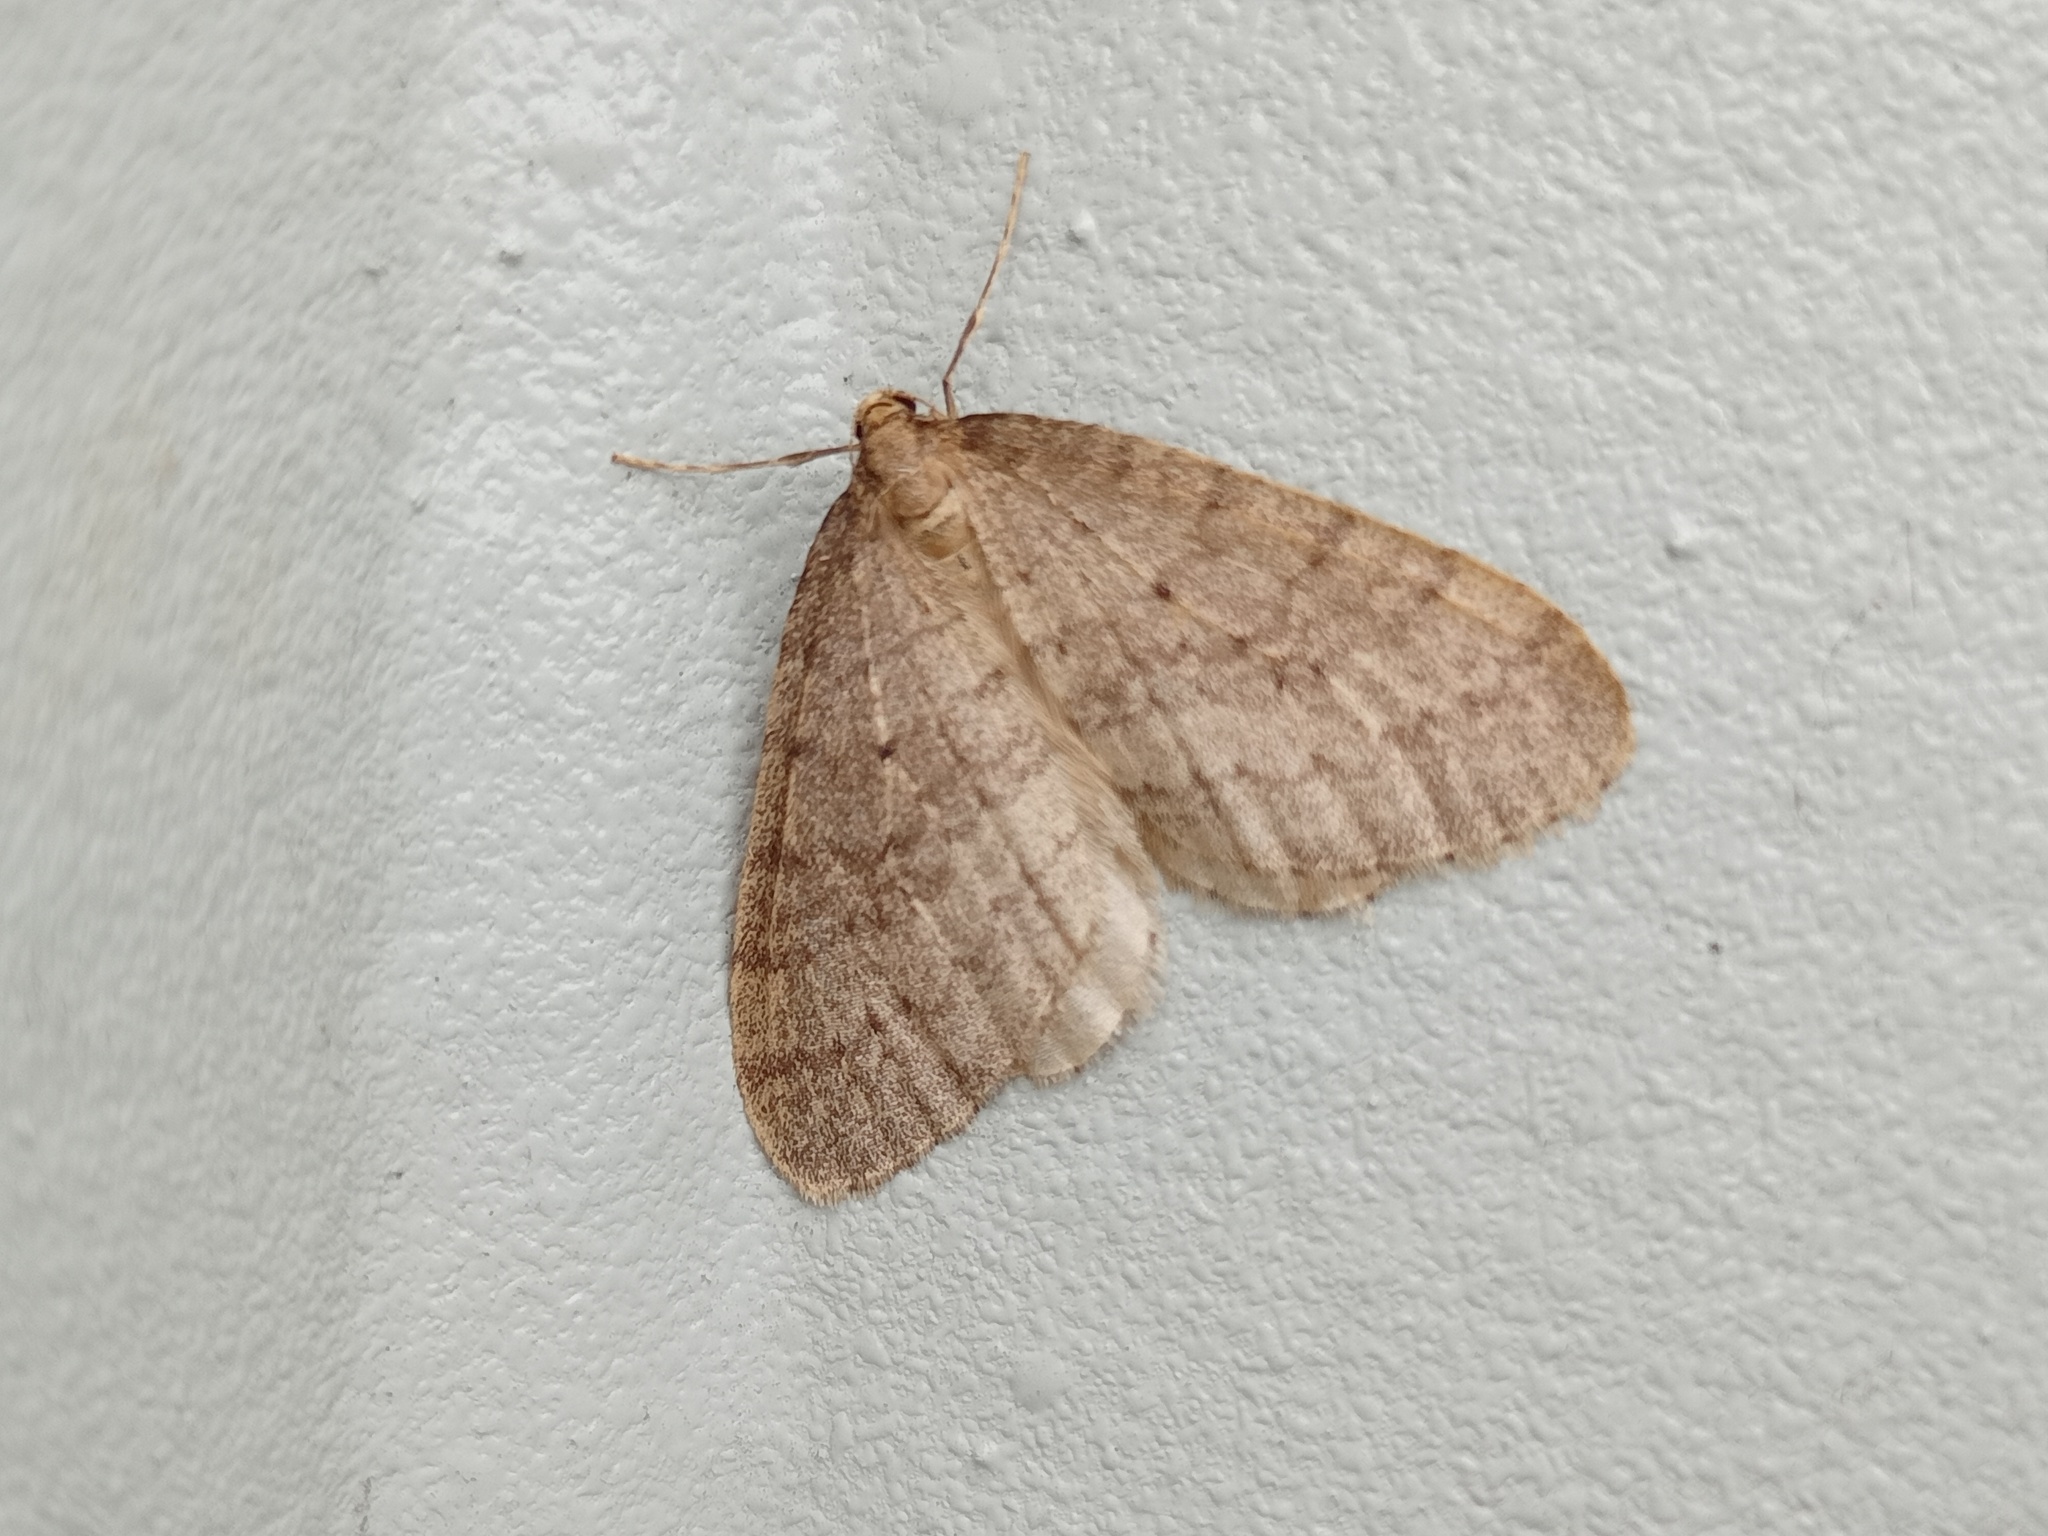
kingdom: Animalia
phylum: Arthropoda
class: Insecta
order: Lepidoptera
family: Geometridae
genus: Operophtera
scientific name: Operophtera brumata
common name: Winter moth
